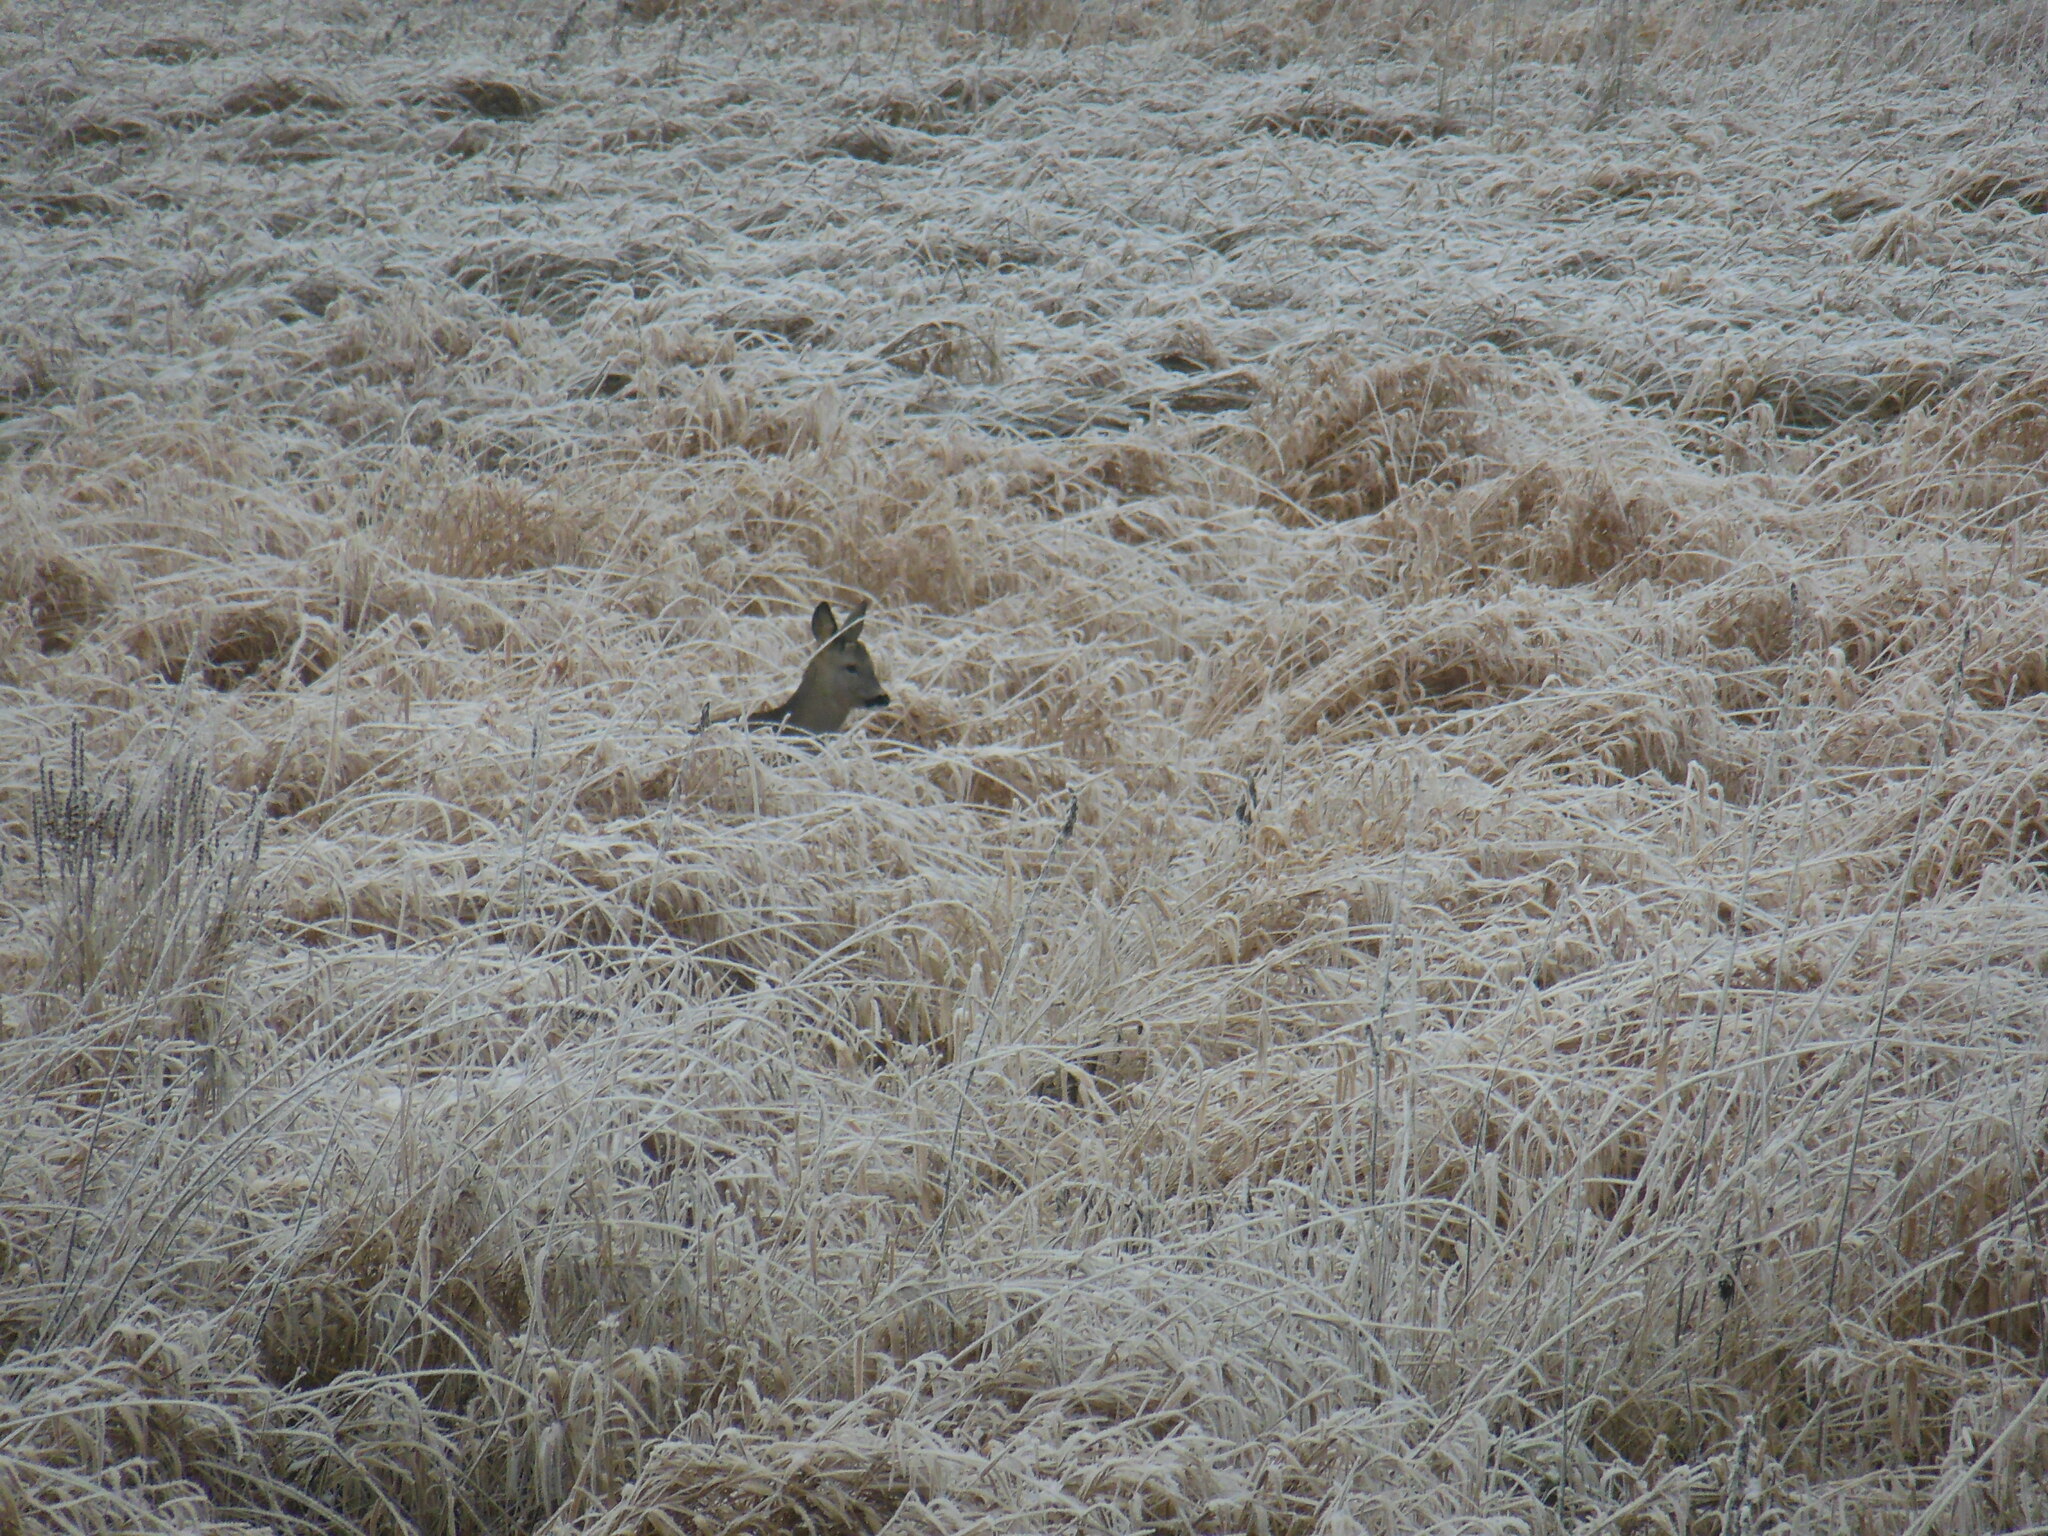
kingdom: Animalia
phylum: Chordata
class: Mammalia
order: Artiodactyla
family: Cervidae
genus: Capreolus
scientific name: Capreolus capreolus
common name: Western roe deer
